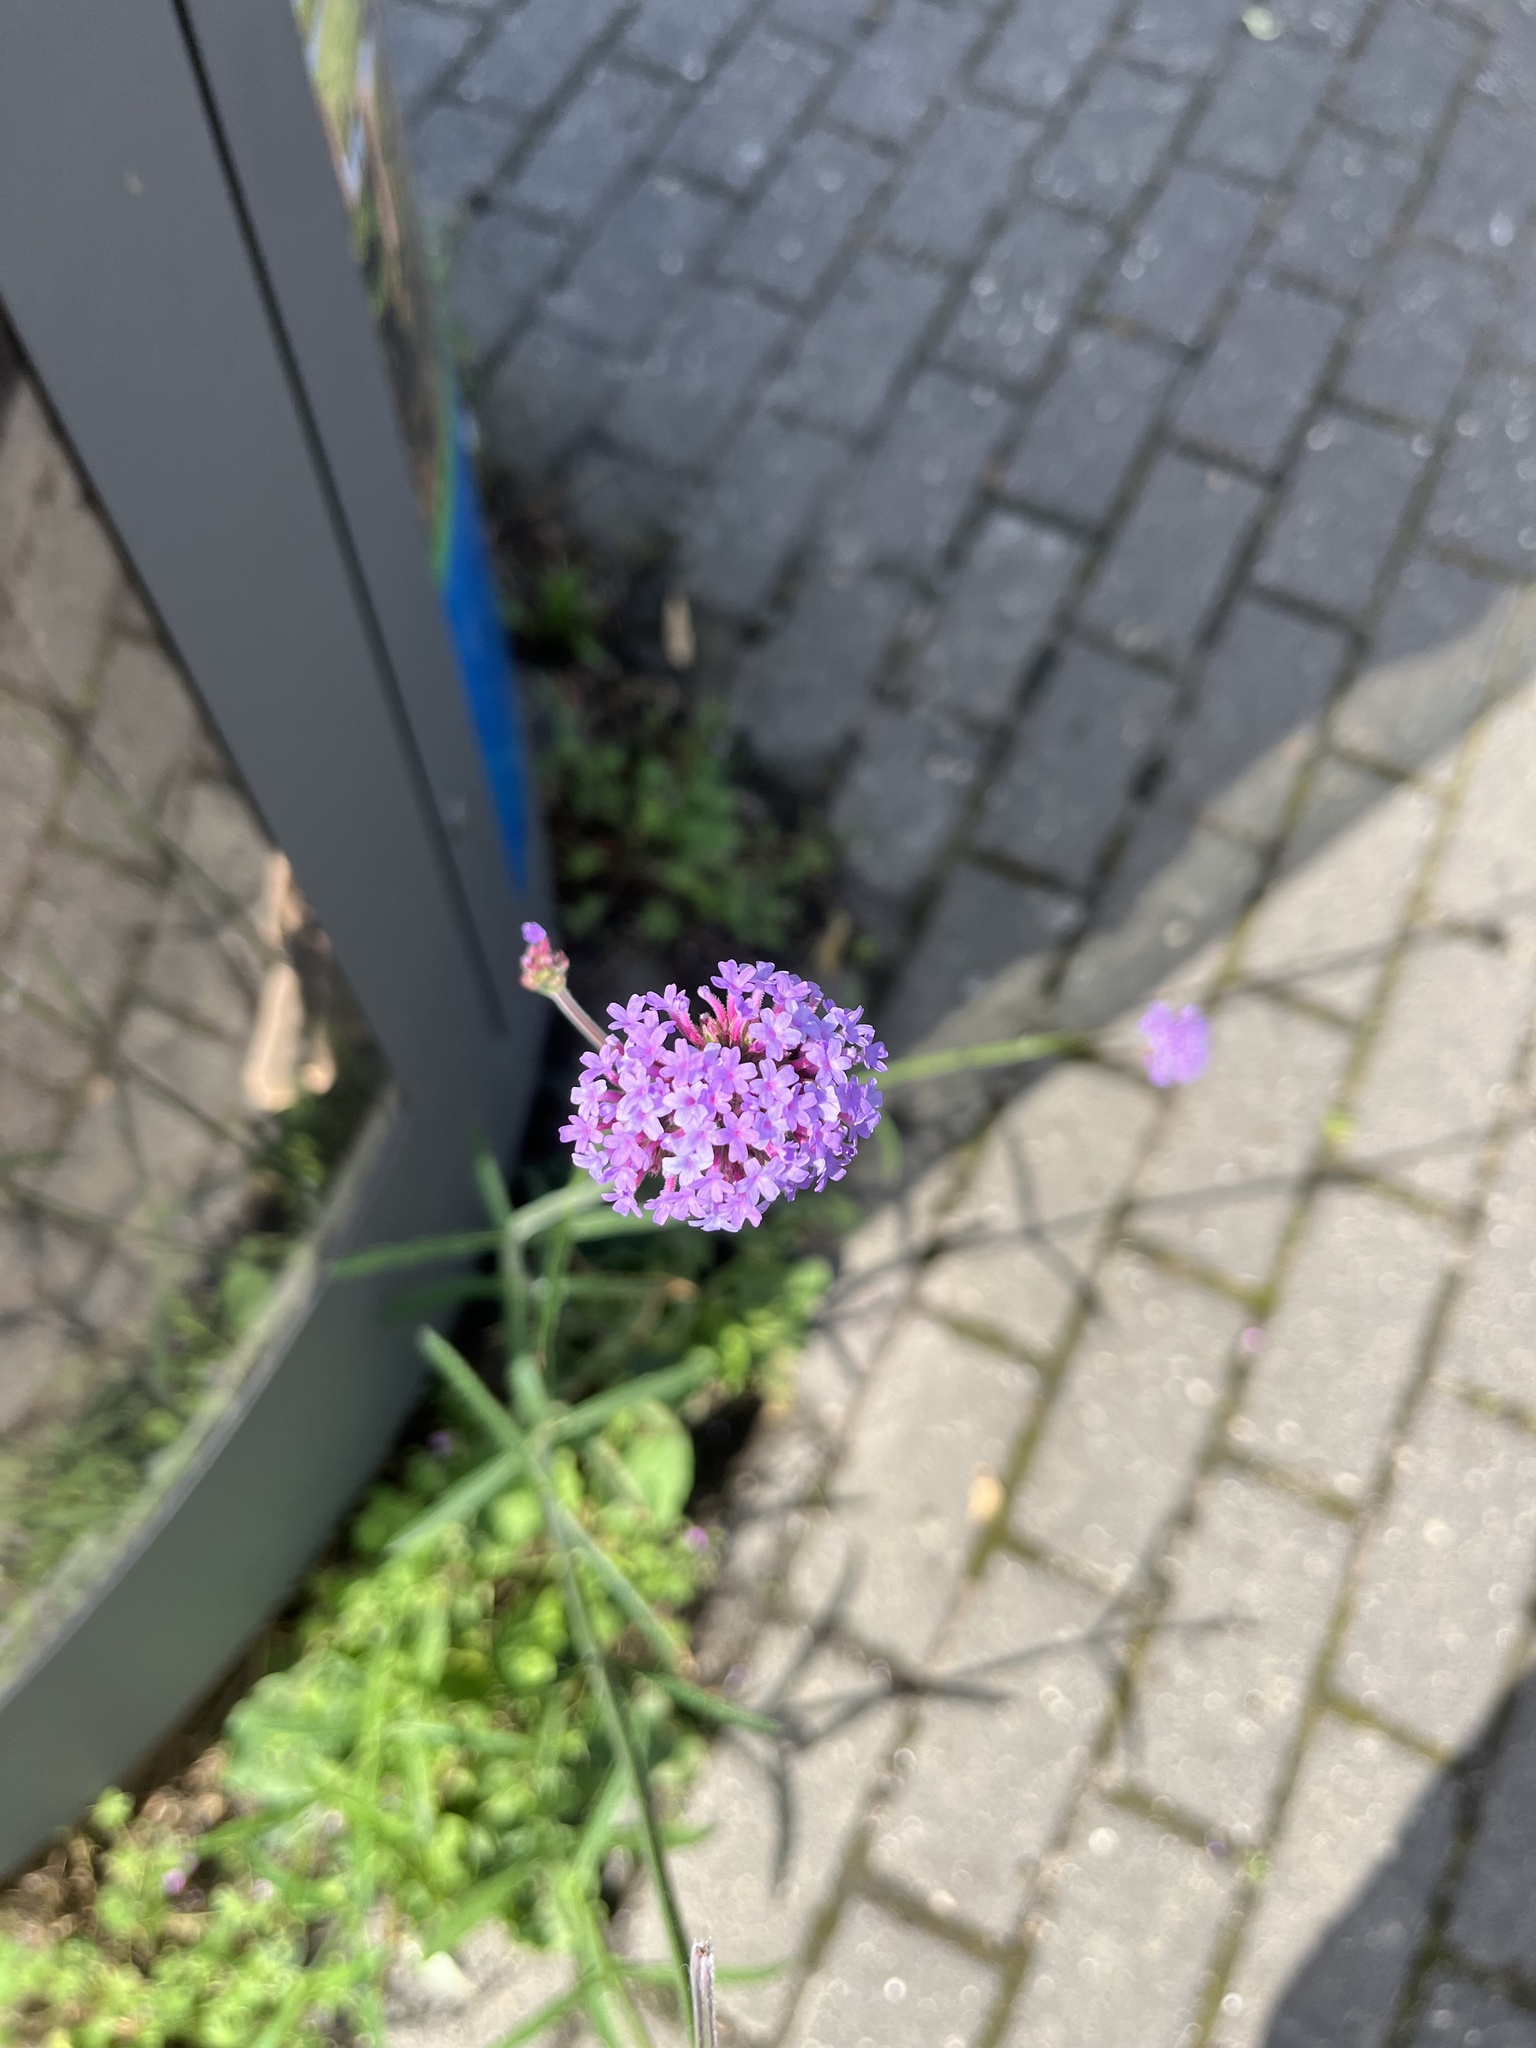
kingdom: Plantae
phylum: Tracheophyta
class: Magnoliopsida
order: Lamiales
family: Verbenaceae
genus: Verbena
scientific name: Verbena bonariensis
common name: Purpletop vervain
